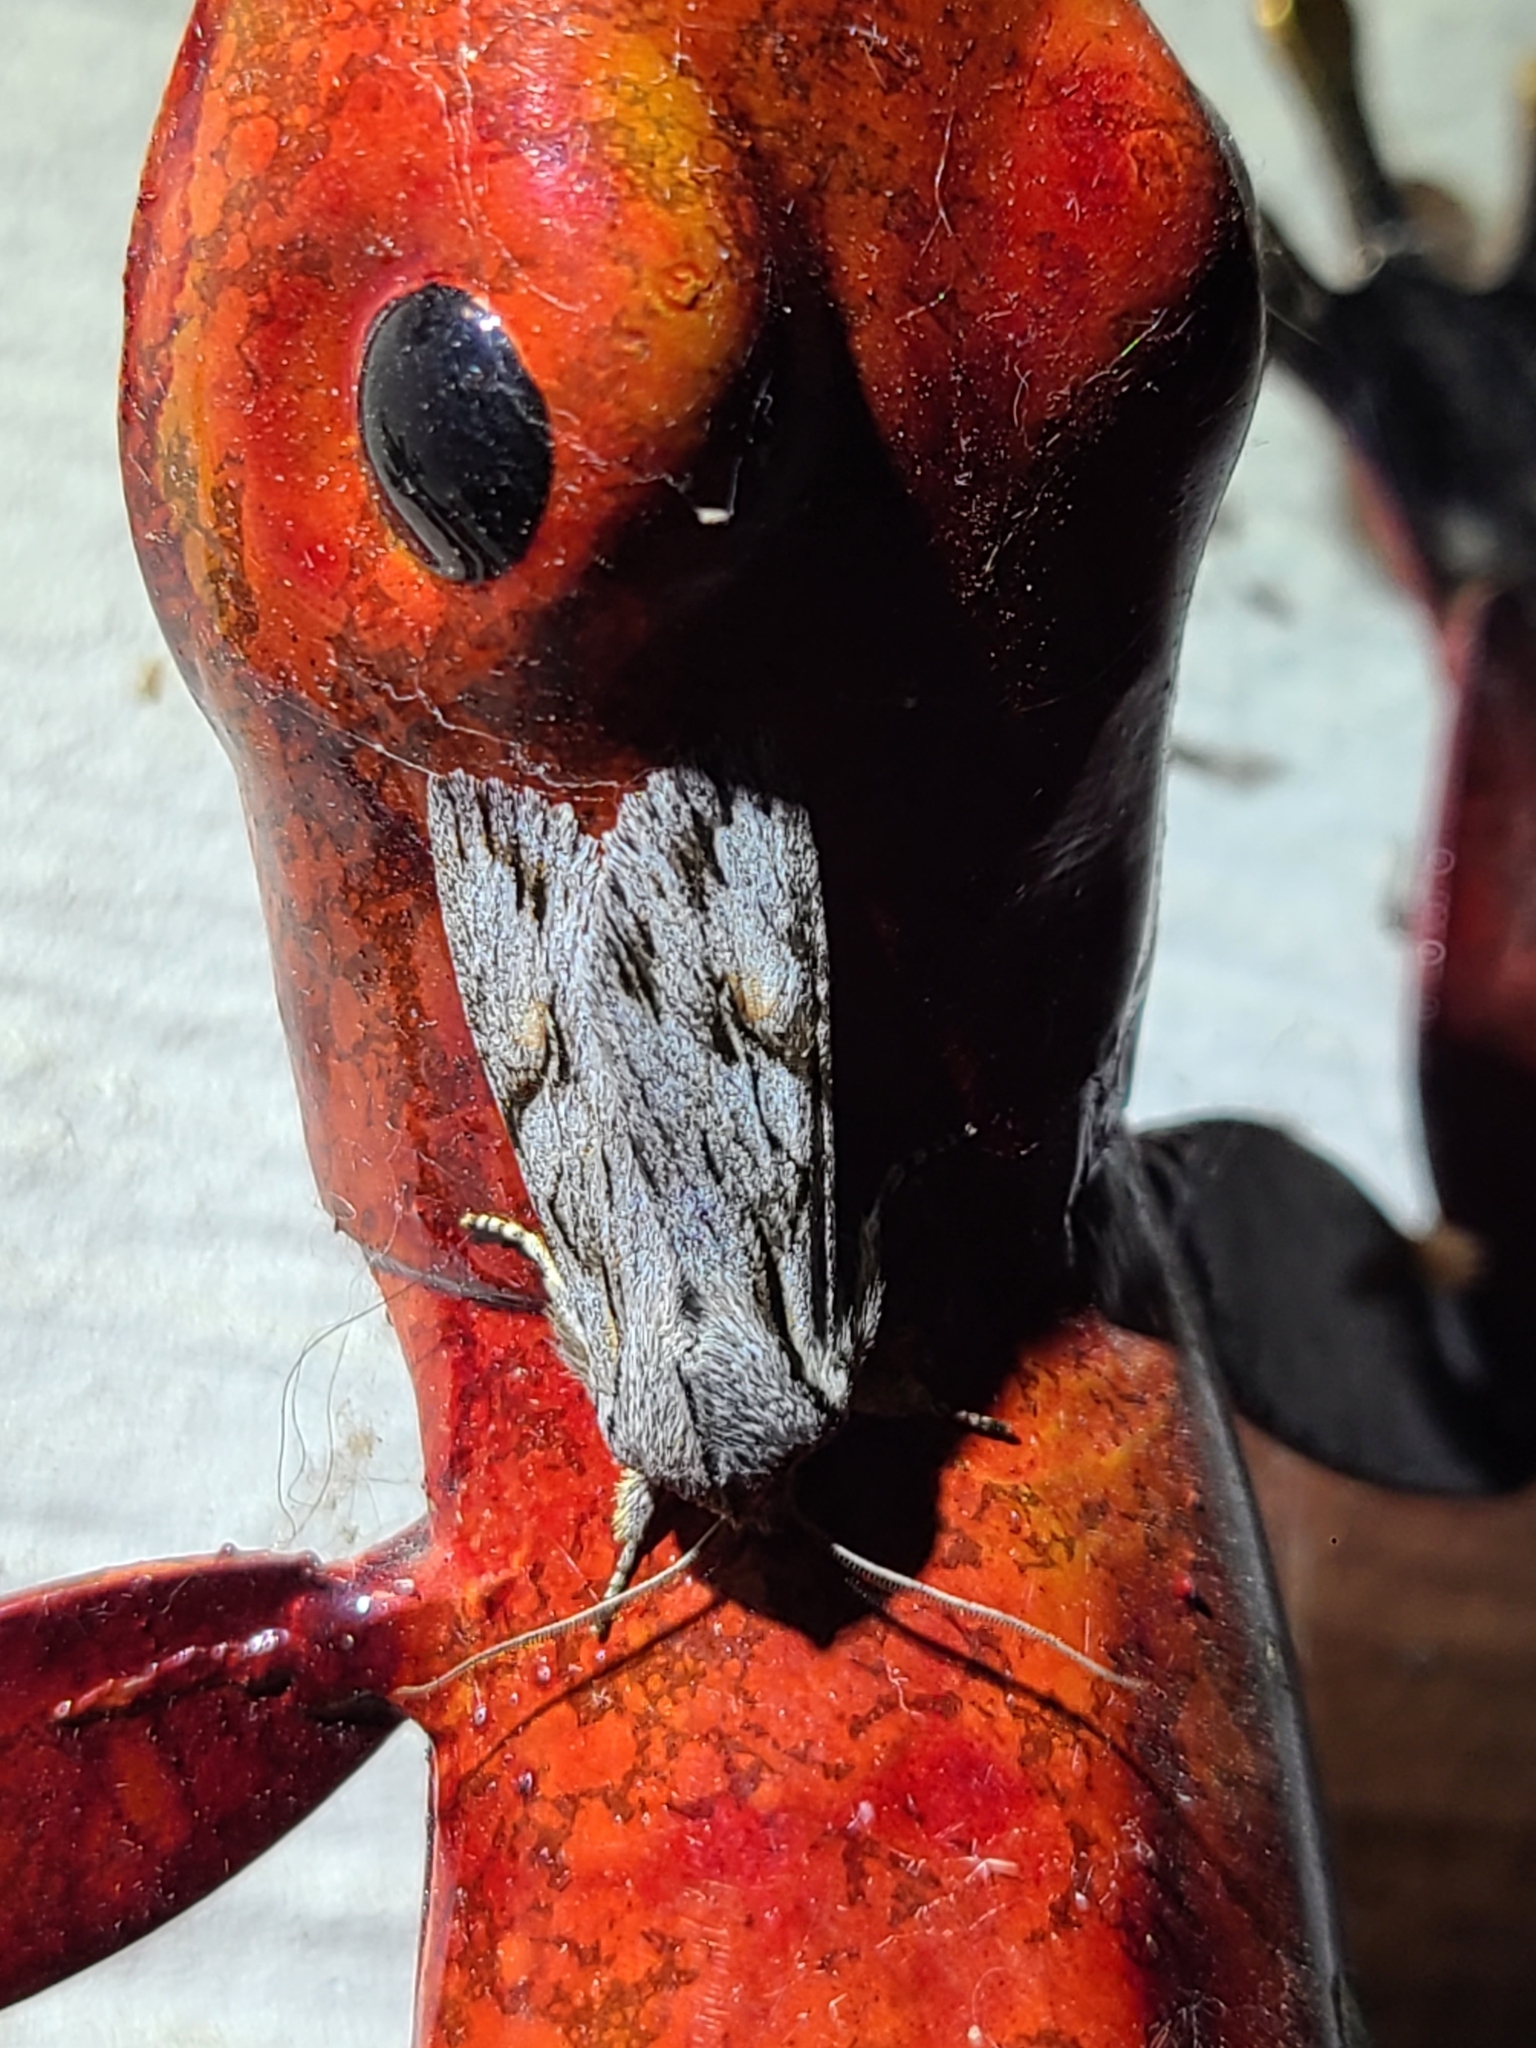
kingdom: Animalia
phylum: Arthropoda
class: Insecta
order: Lepidoptera
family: Noctuidae
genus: Egira
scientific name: Egira crucialis
